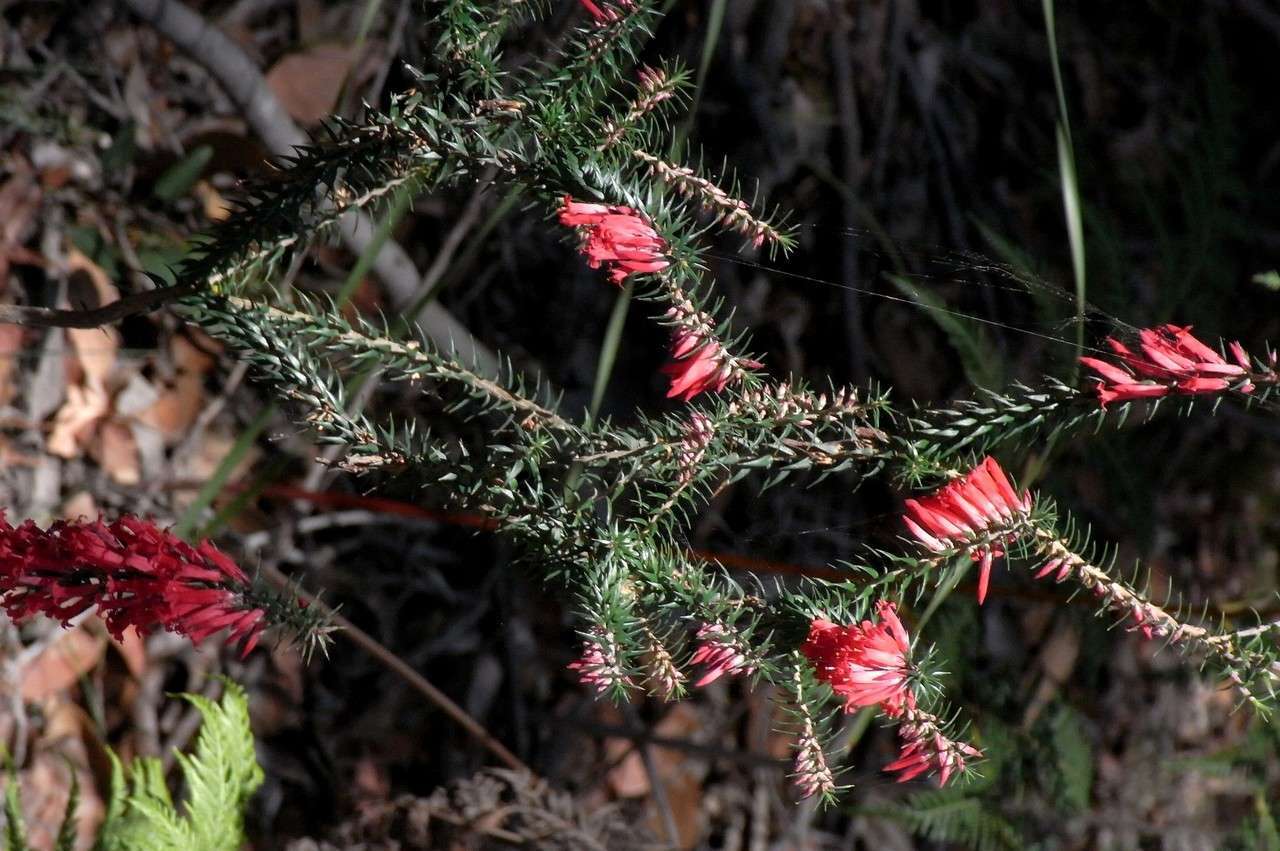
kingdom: Plantae
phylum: Tracheophyta
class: Magnoliopsida
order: Ericales
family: Ericaceae
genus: Epacris
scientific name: Epacris impressa
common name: Common-heath
